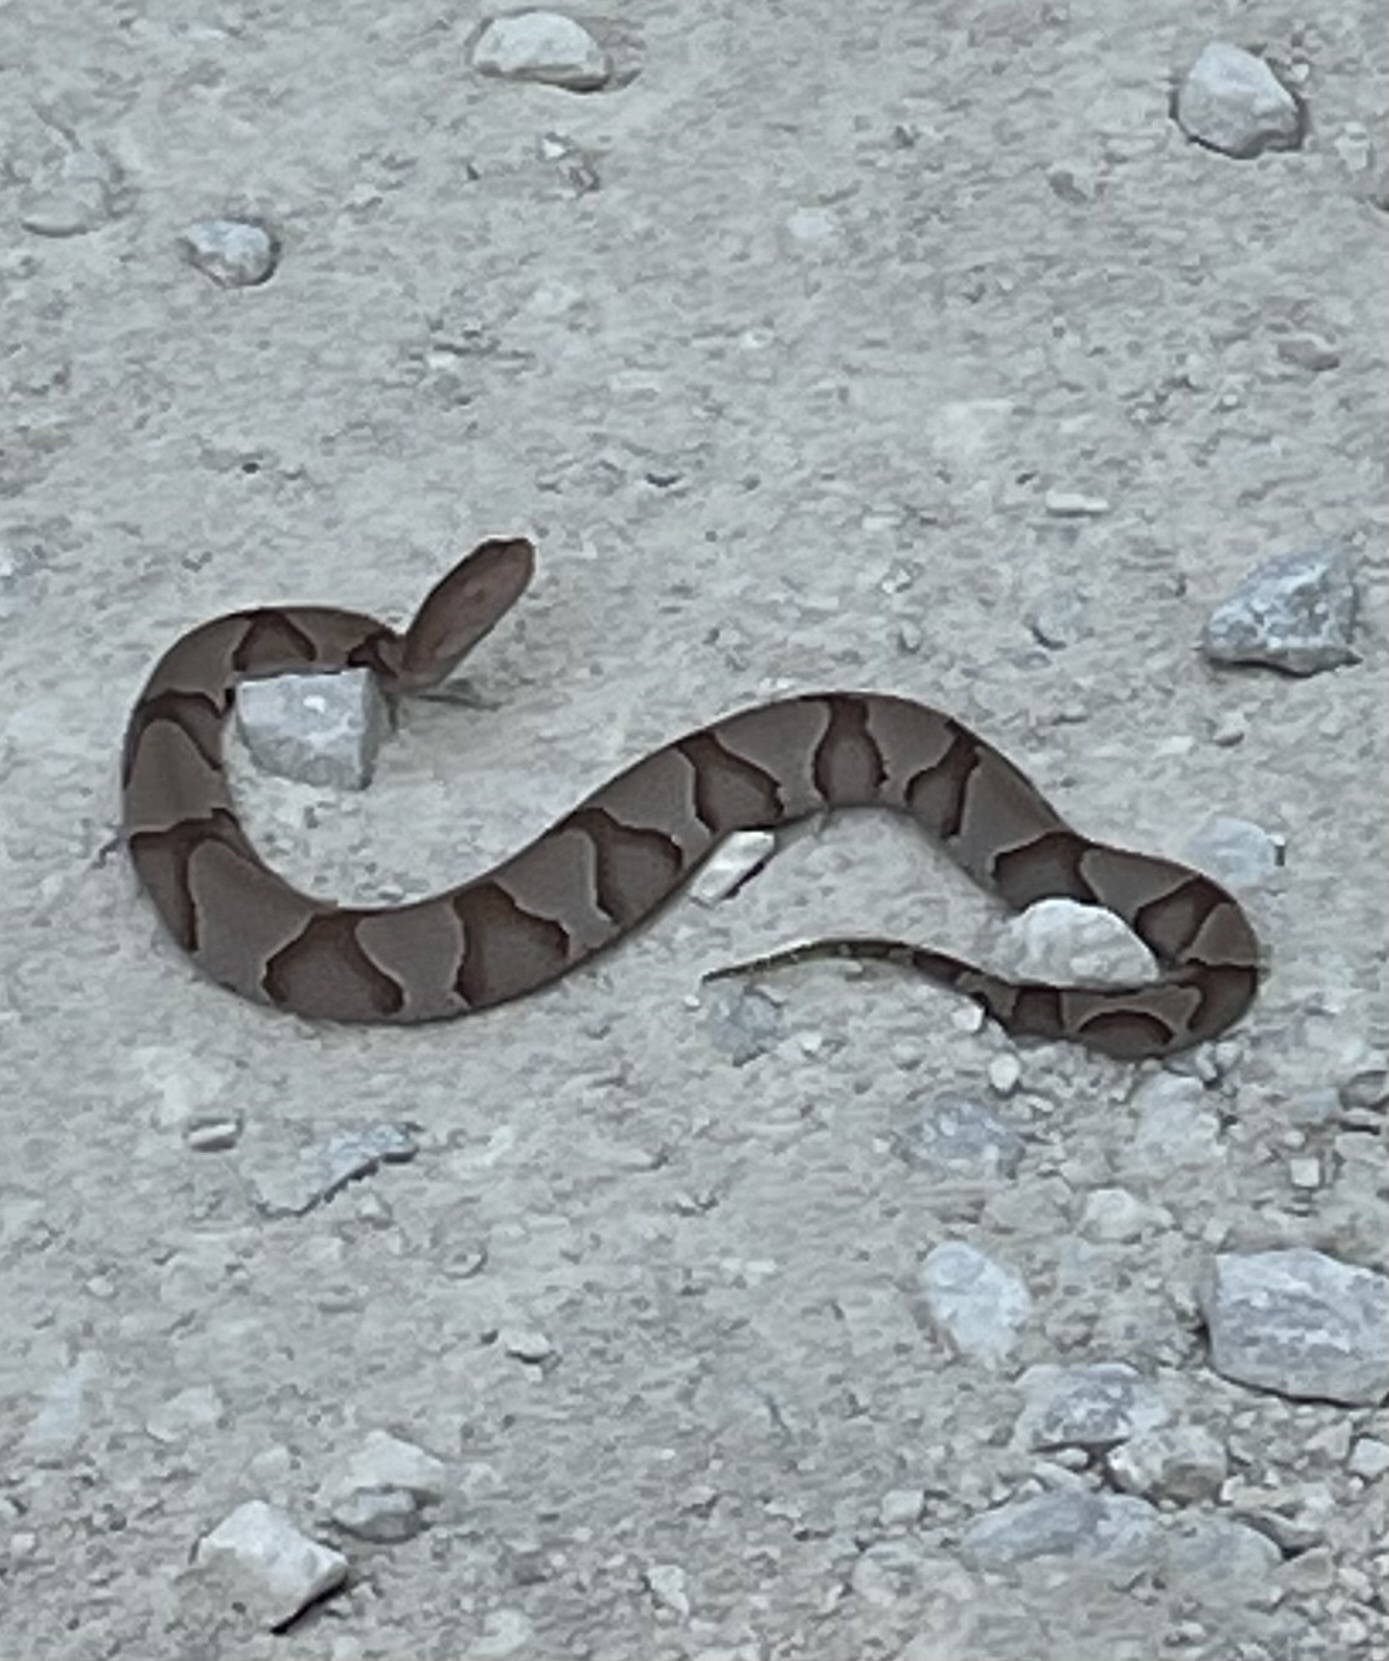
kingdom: Animalia
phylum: Chordata
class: Squamata
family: Viperidae
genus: Agkistrodon
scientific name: Agkistrodon contortrix
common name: Northern copperhead
